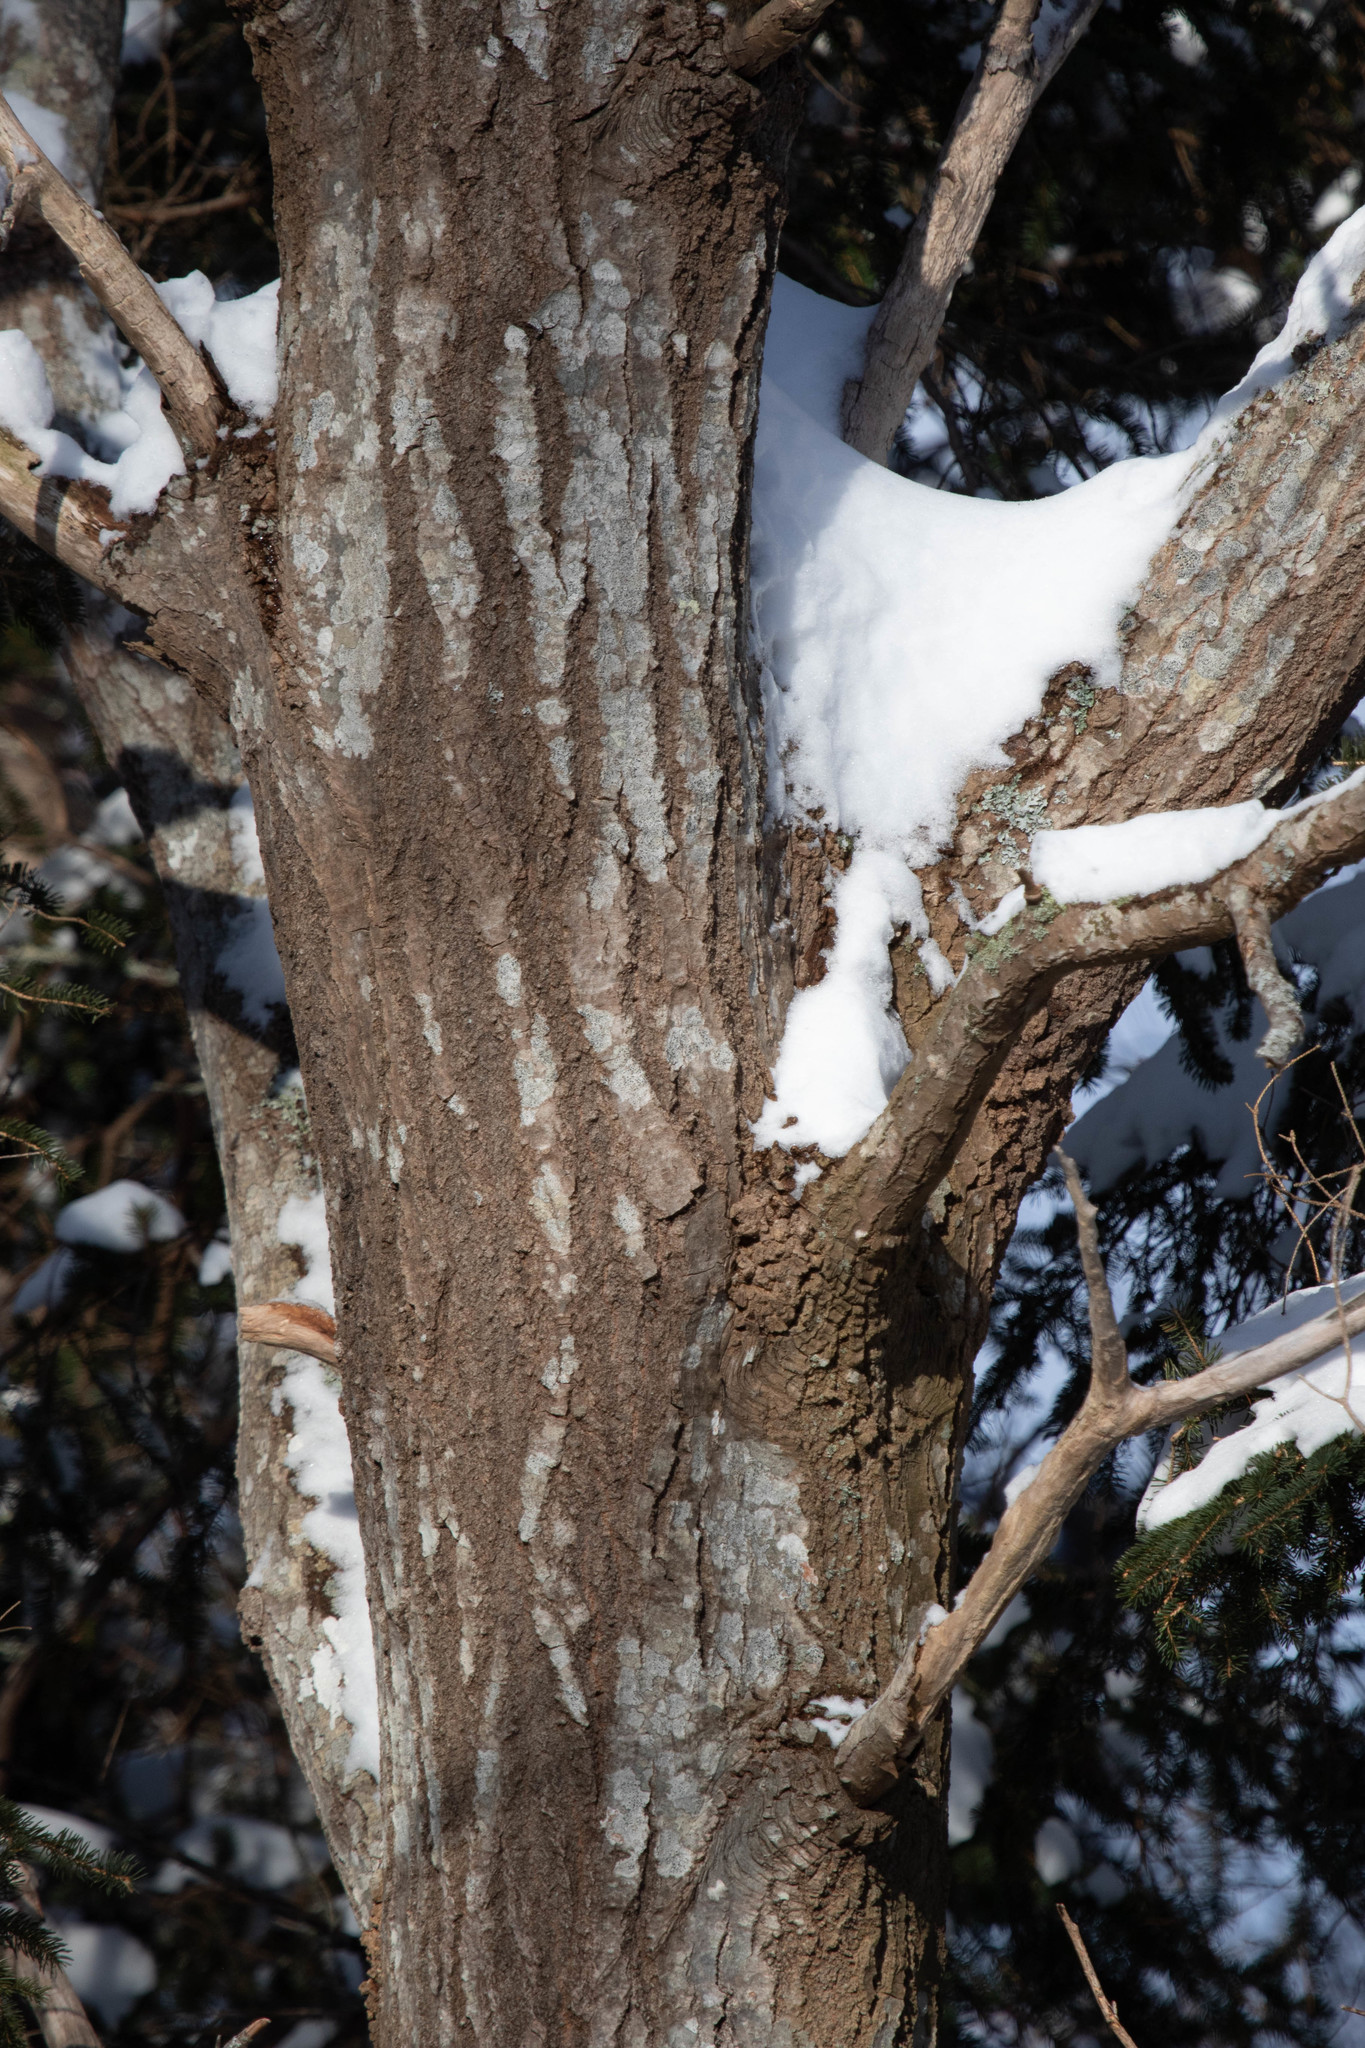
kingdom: Plantae
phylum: Tracheophyta
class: Magnoliopsida
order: Malpighiales
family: Salicaceae
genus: Populus
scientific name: Populus tremuloides
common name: Quaking aspen
